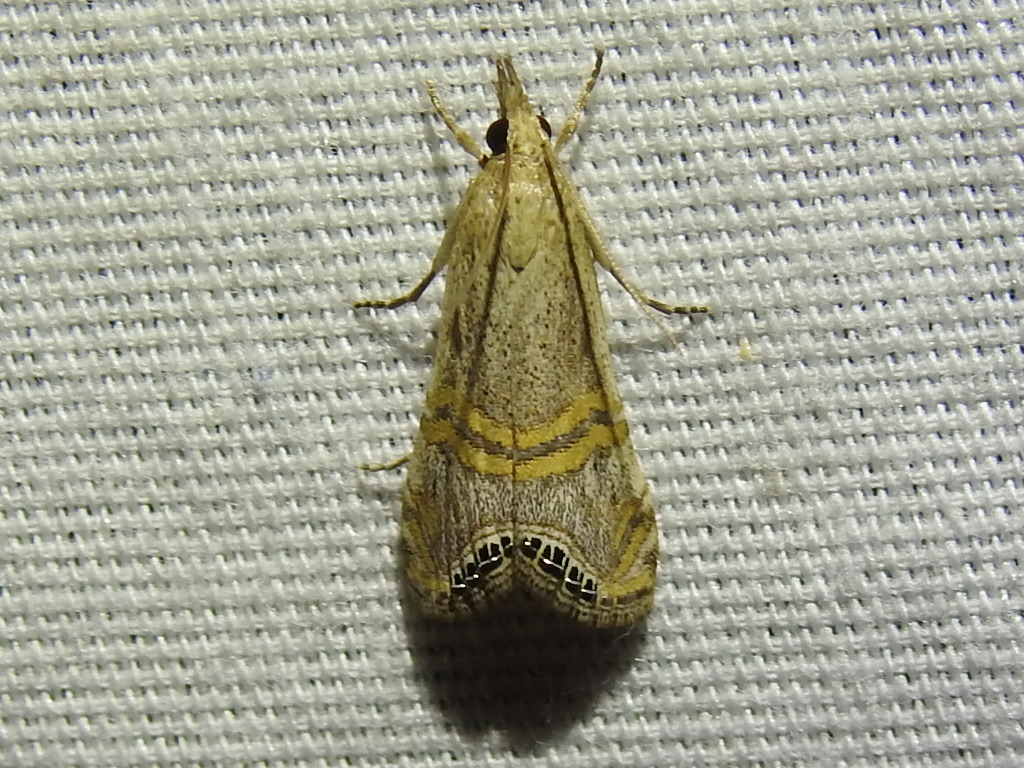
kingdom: Animalia
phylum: Arthropoda
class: Insecta
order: Lepidoptera
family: Crambidae
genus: Euchromius
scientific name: Euchromius ocellea
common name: Necklace veneer moth
